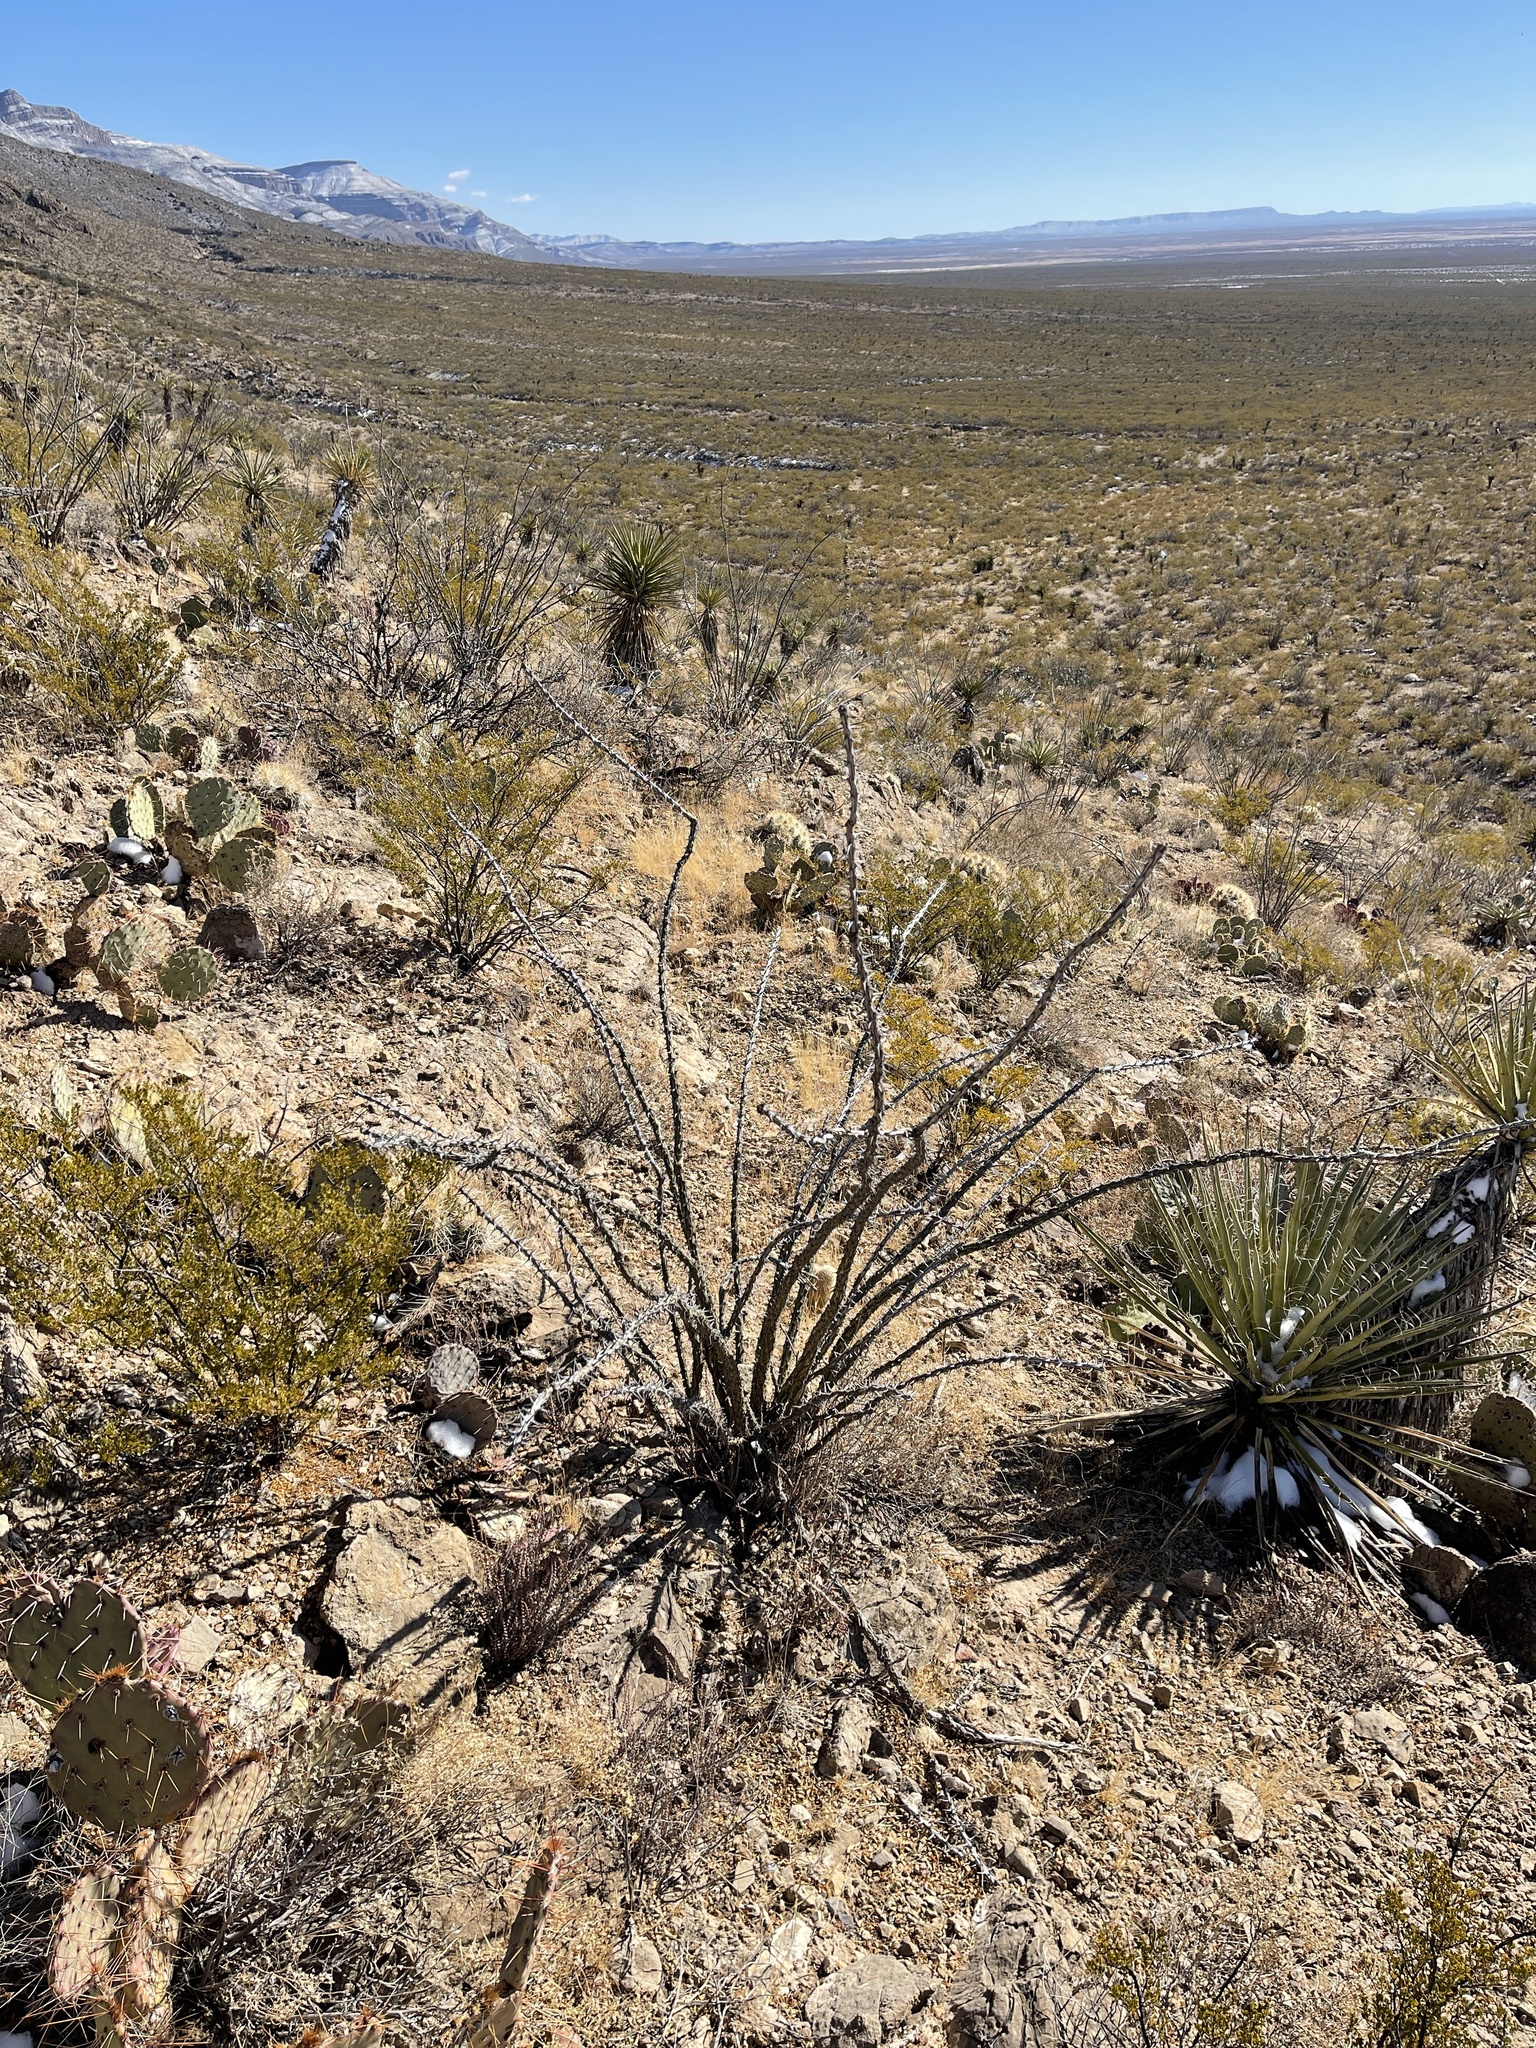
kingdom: Plantae
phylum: Tracheophyta
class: Magnoliopsida
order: Ericales
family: Fouquieriaceae
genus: Fouquieria
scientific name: Fouquieria splendens
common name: Vine-cactus
